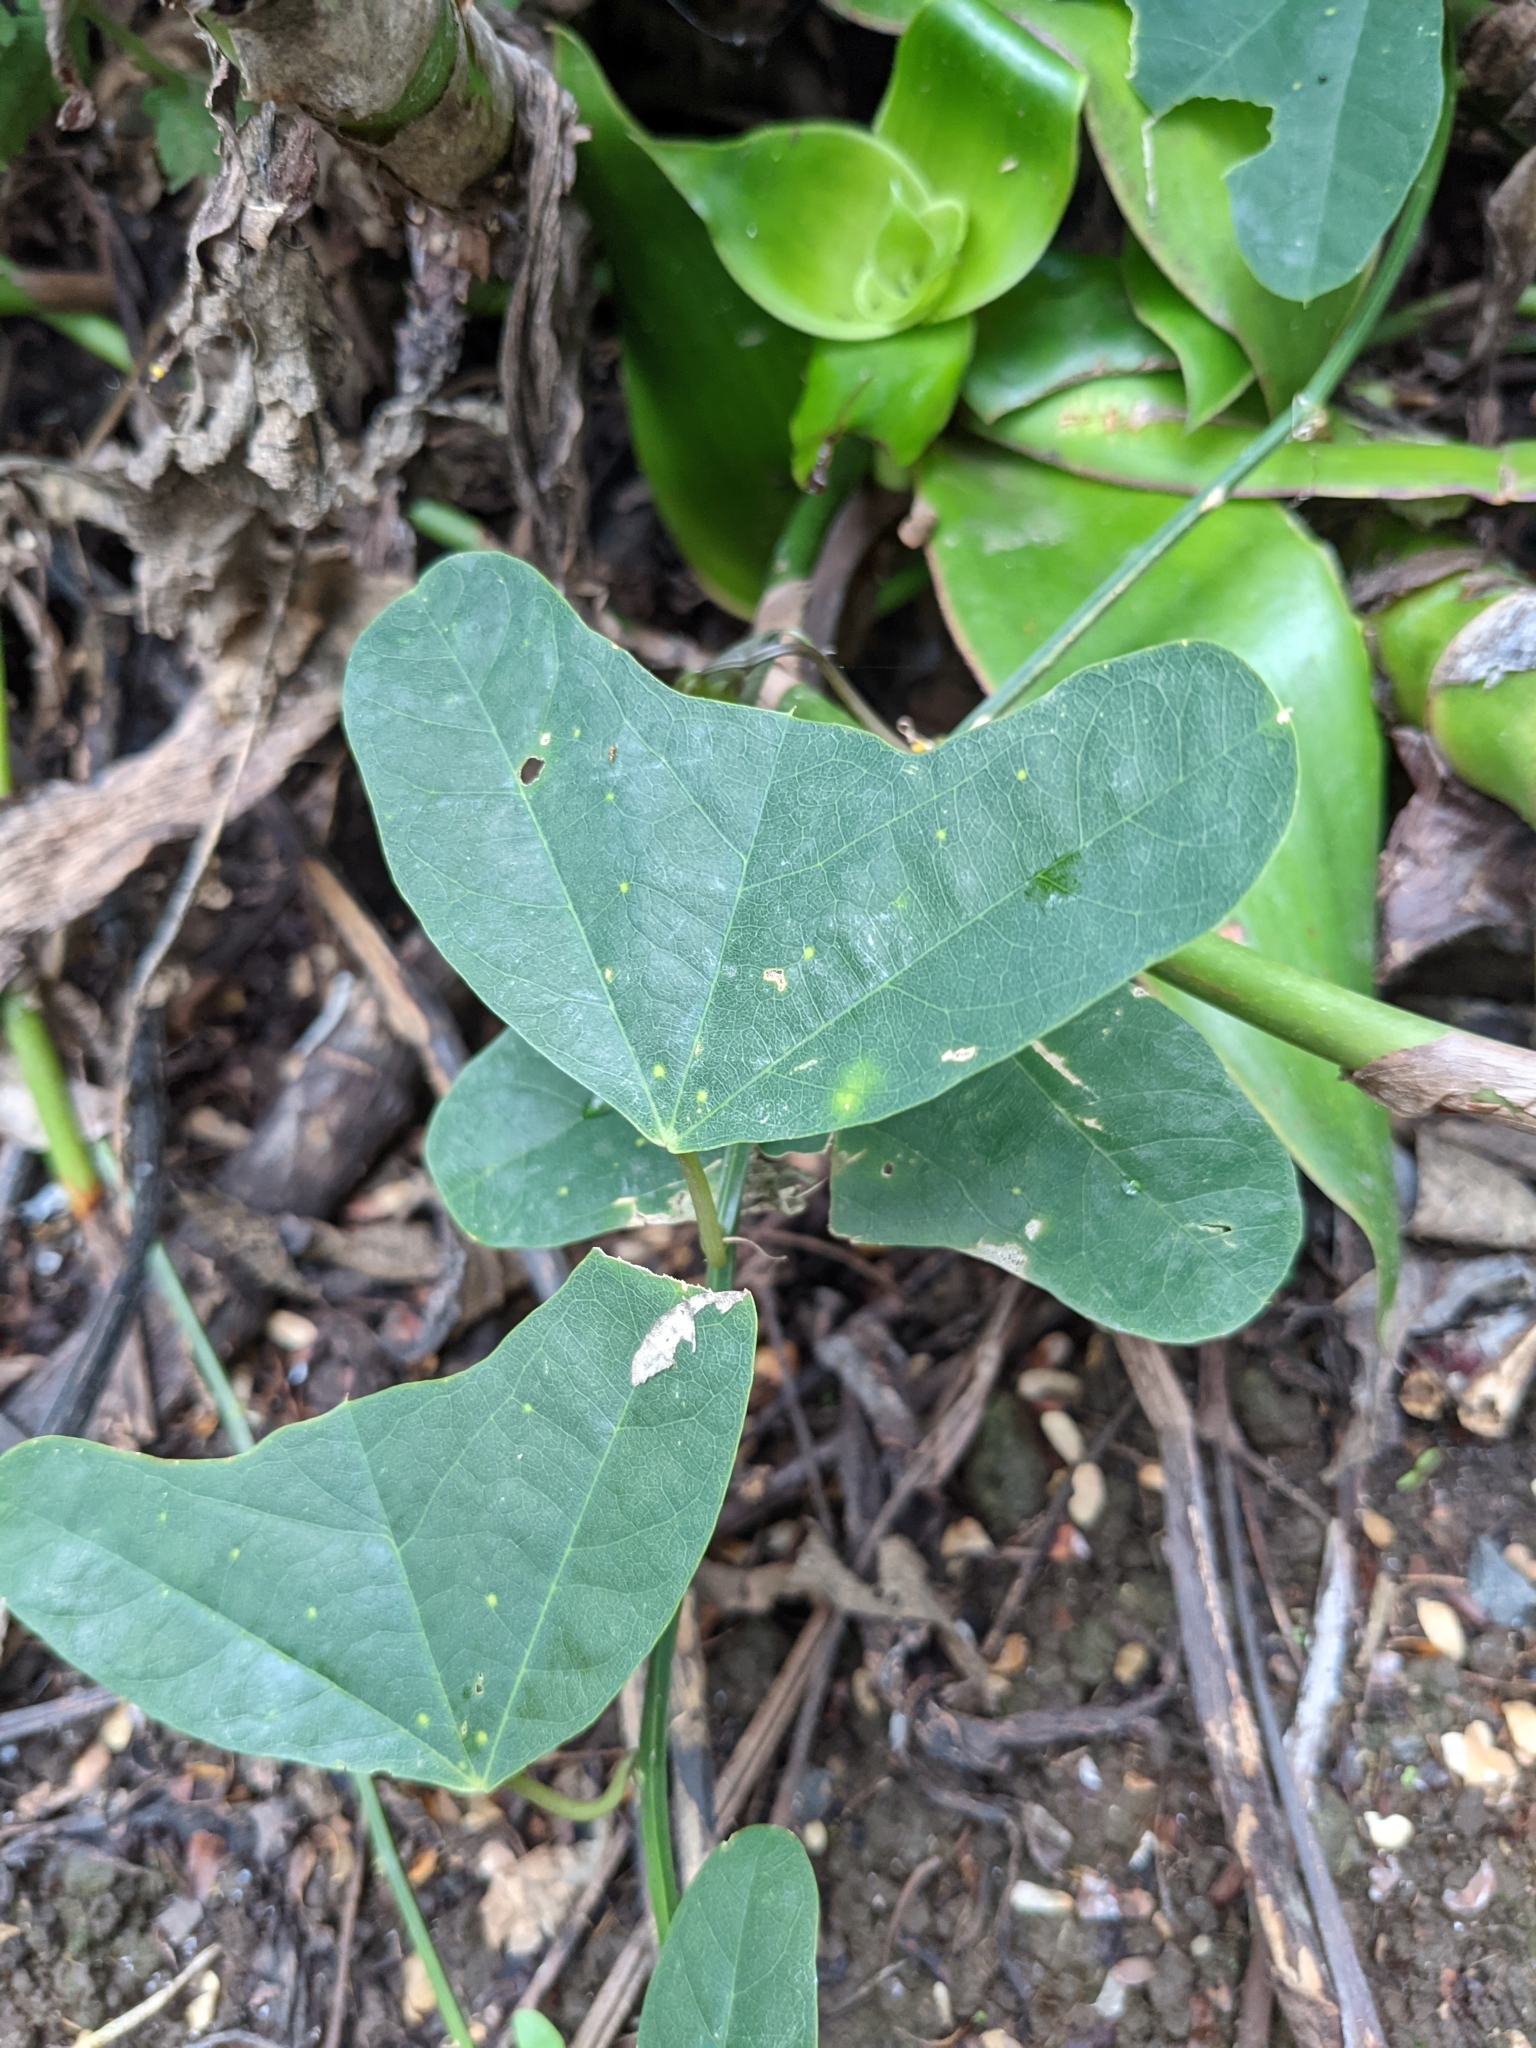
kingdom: Plantae
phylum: Tracheophyta
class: Magnoliopsida
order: Malpighiales
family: Passifloraceae
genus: Passiflora
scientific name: Passiflora biflora
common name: Twoflower passionflower
